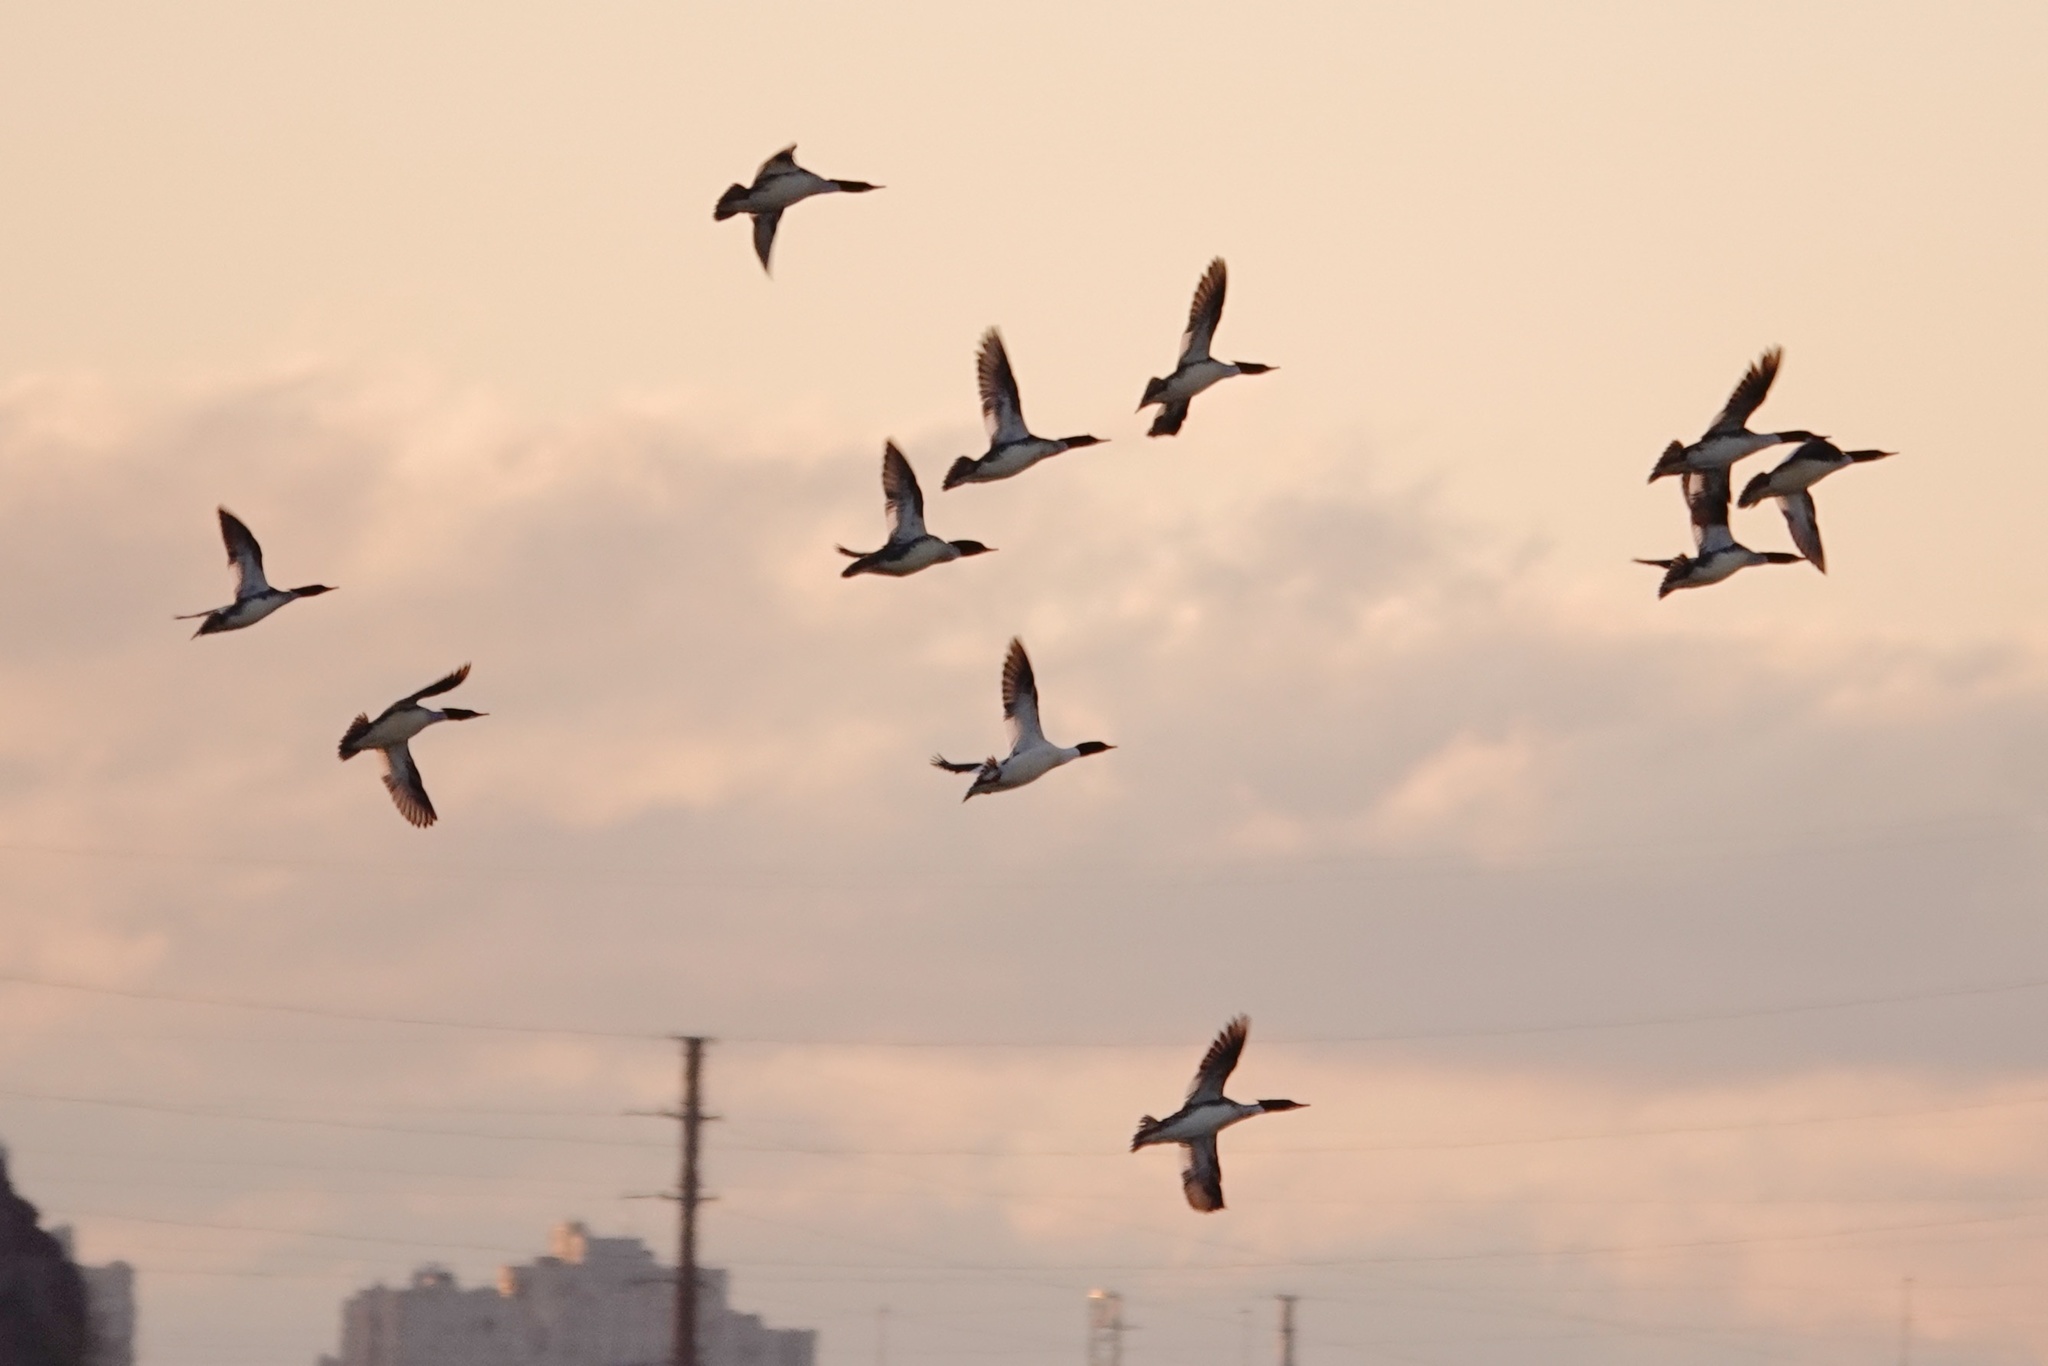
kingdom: Animalia
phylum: Chordata
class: Aves
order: Anseriformes
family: Anatidae
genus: Mergus
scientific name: Mergus serrator
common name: Red-breasted merganser
